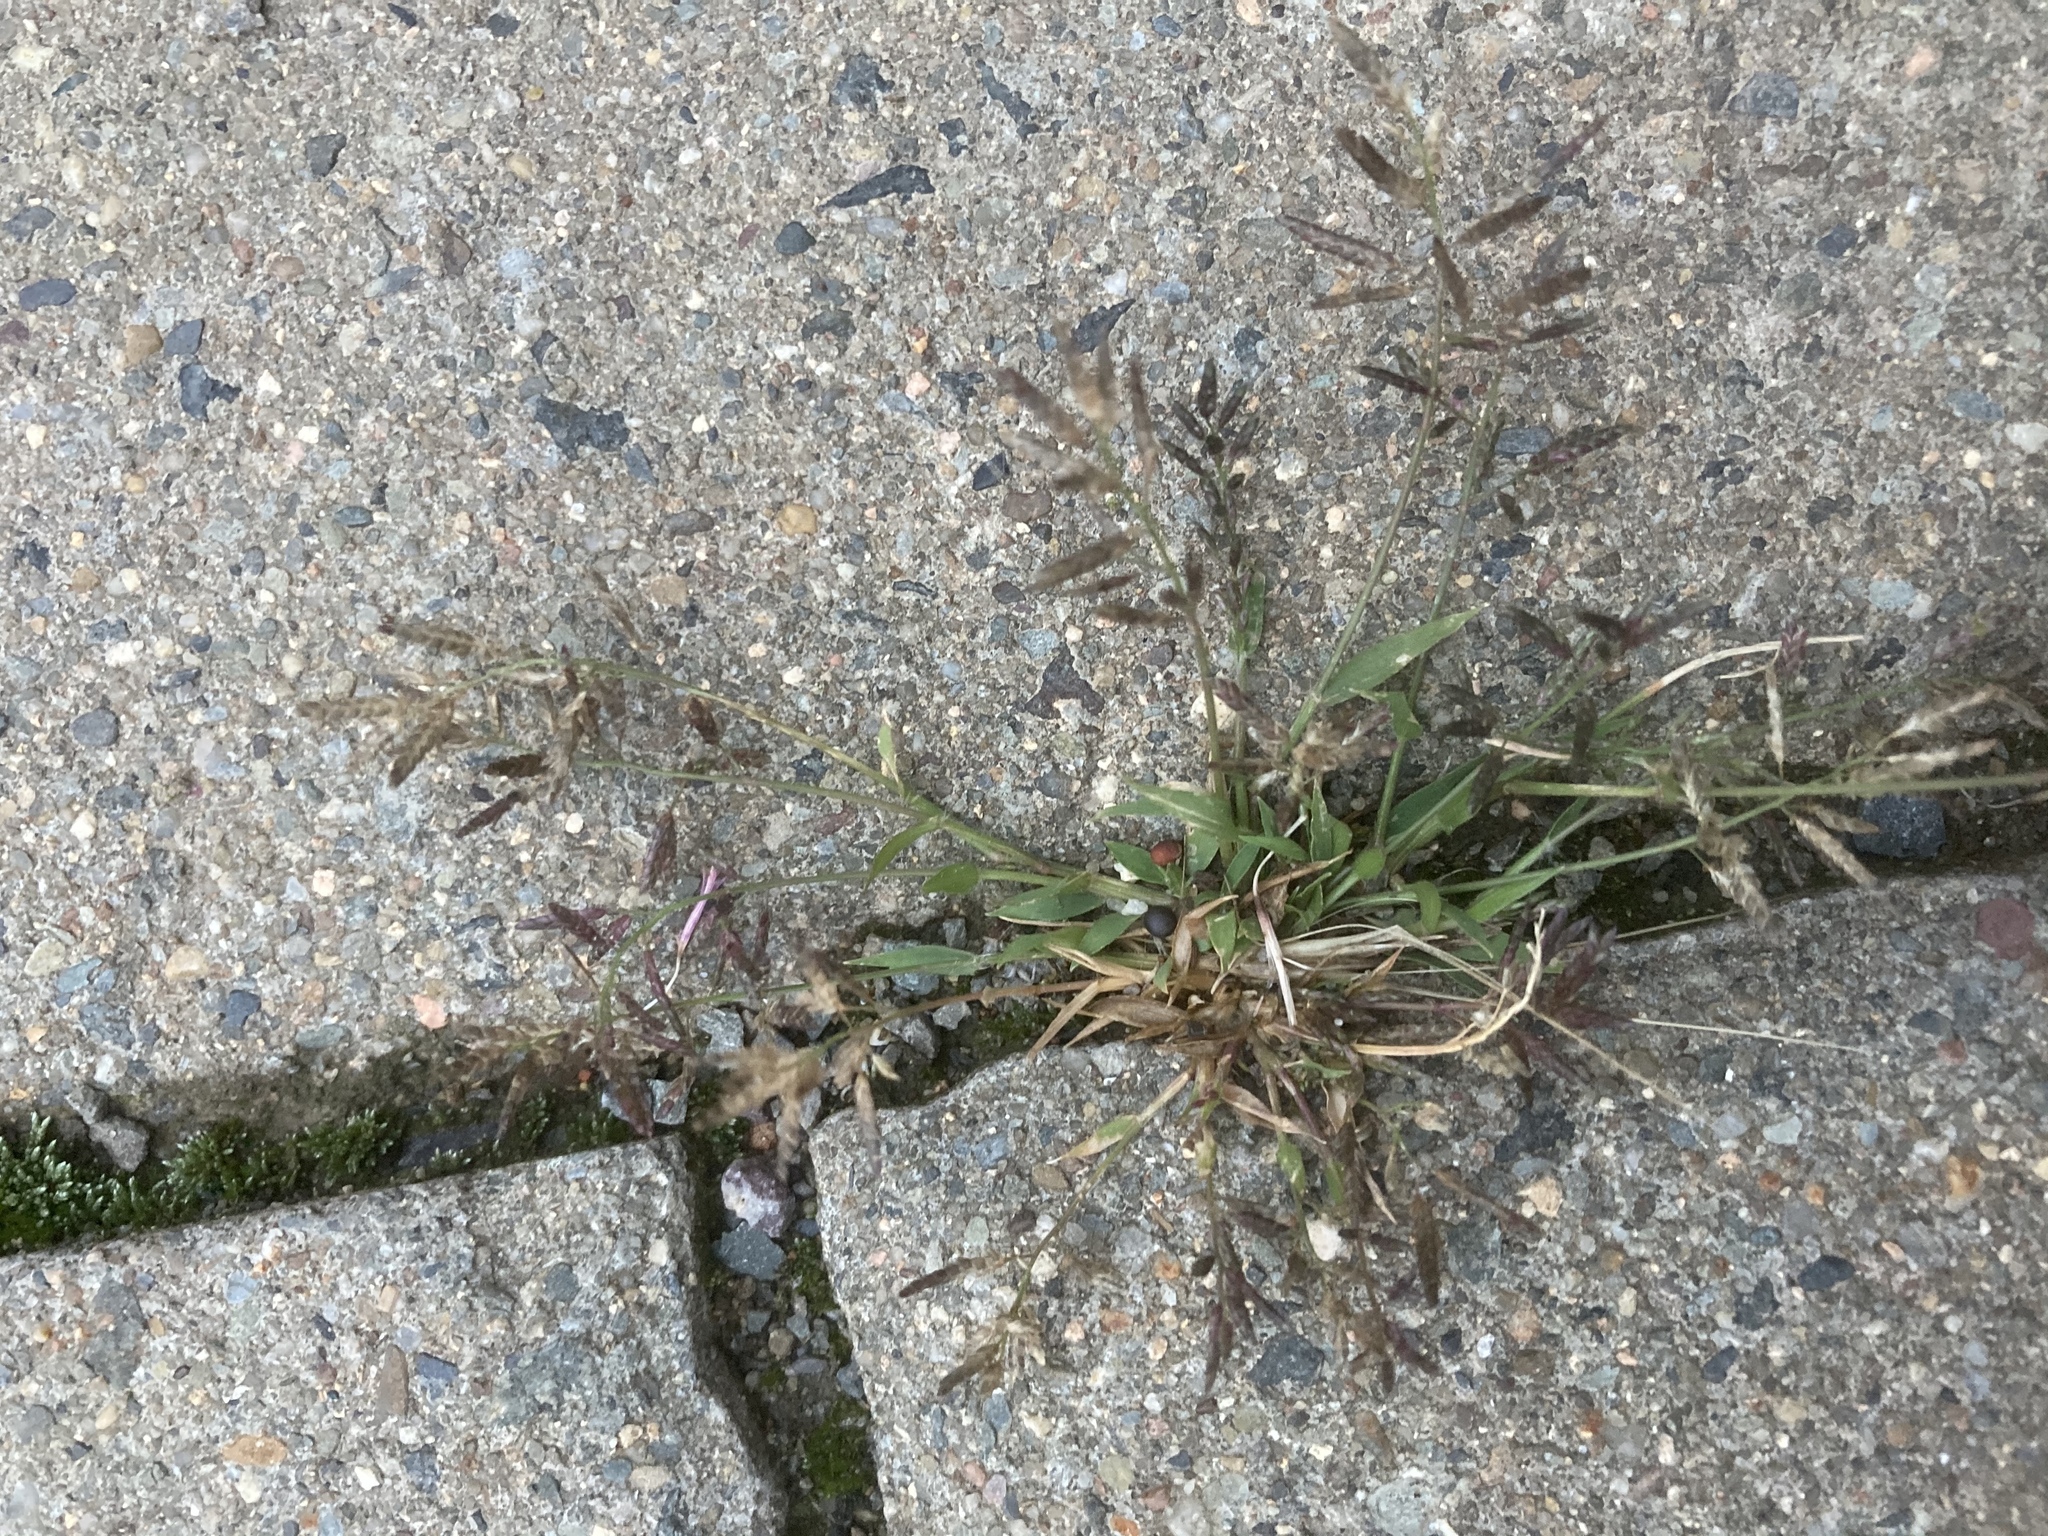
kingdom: Plantae
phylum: Tracheophyta
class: Liliopsida
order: Poales
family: Poaceae
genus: Eragrostis
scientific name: Eragrostis minor
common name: Small love-grass
